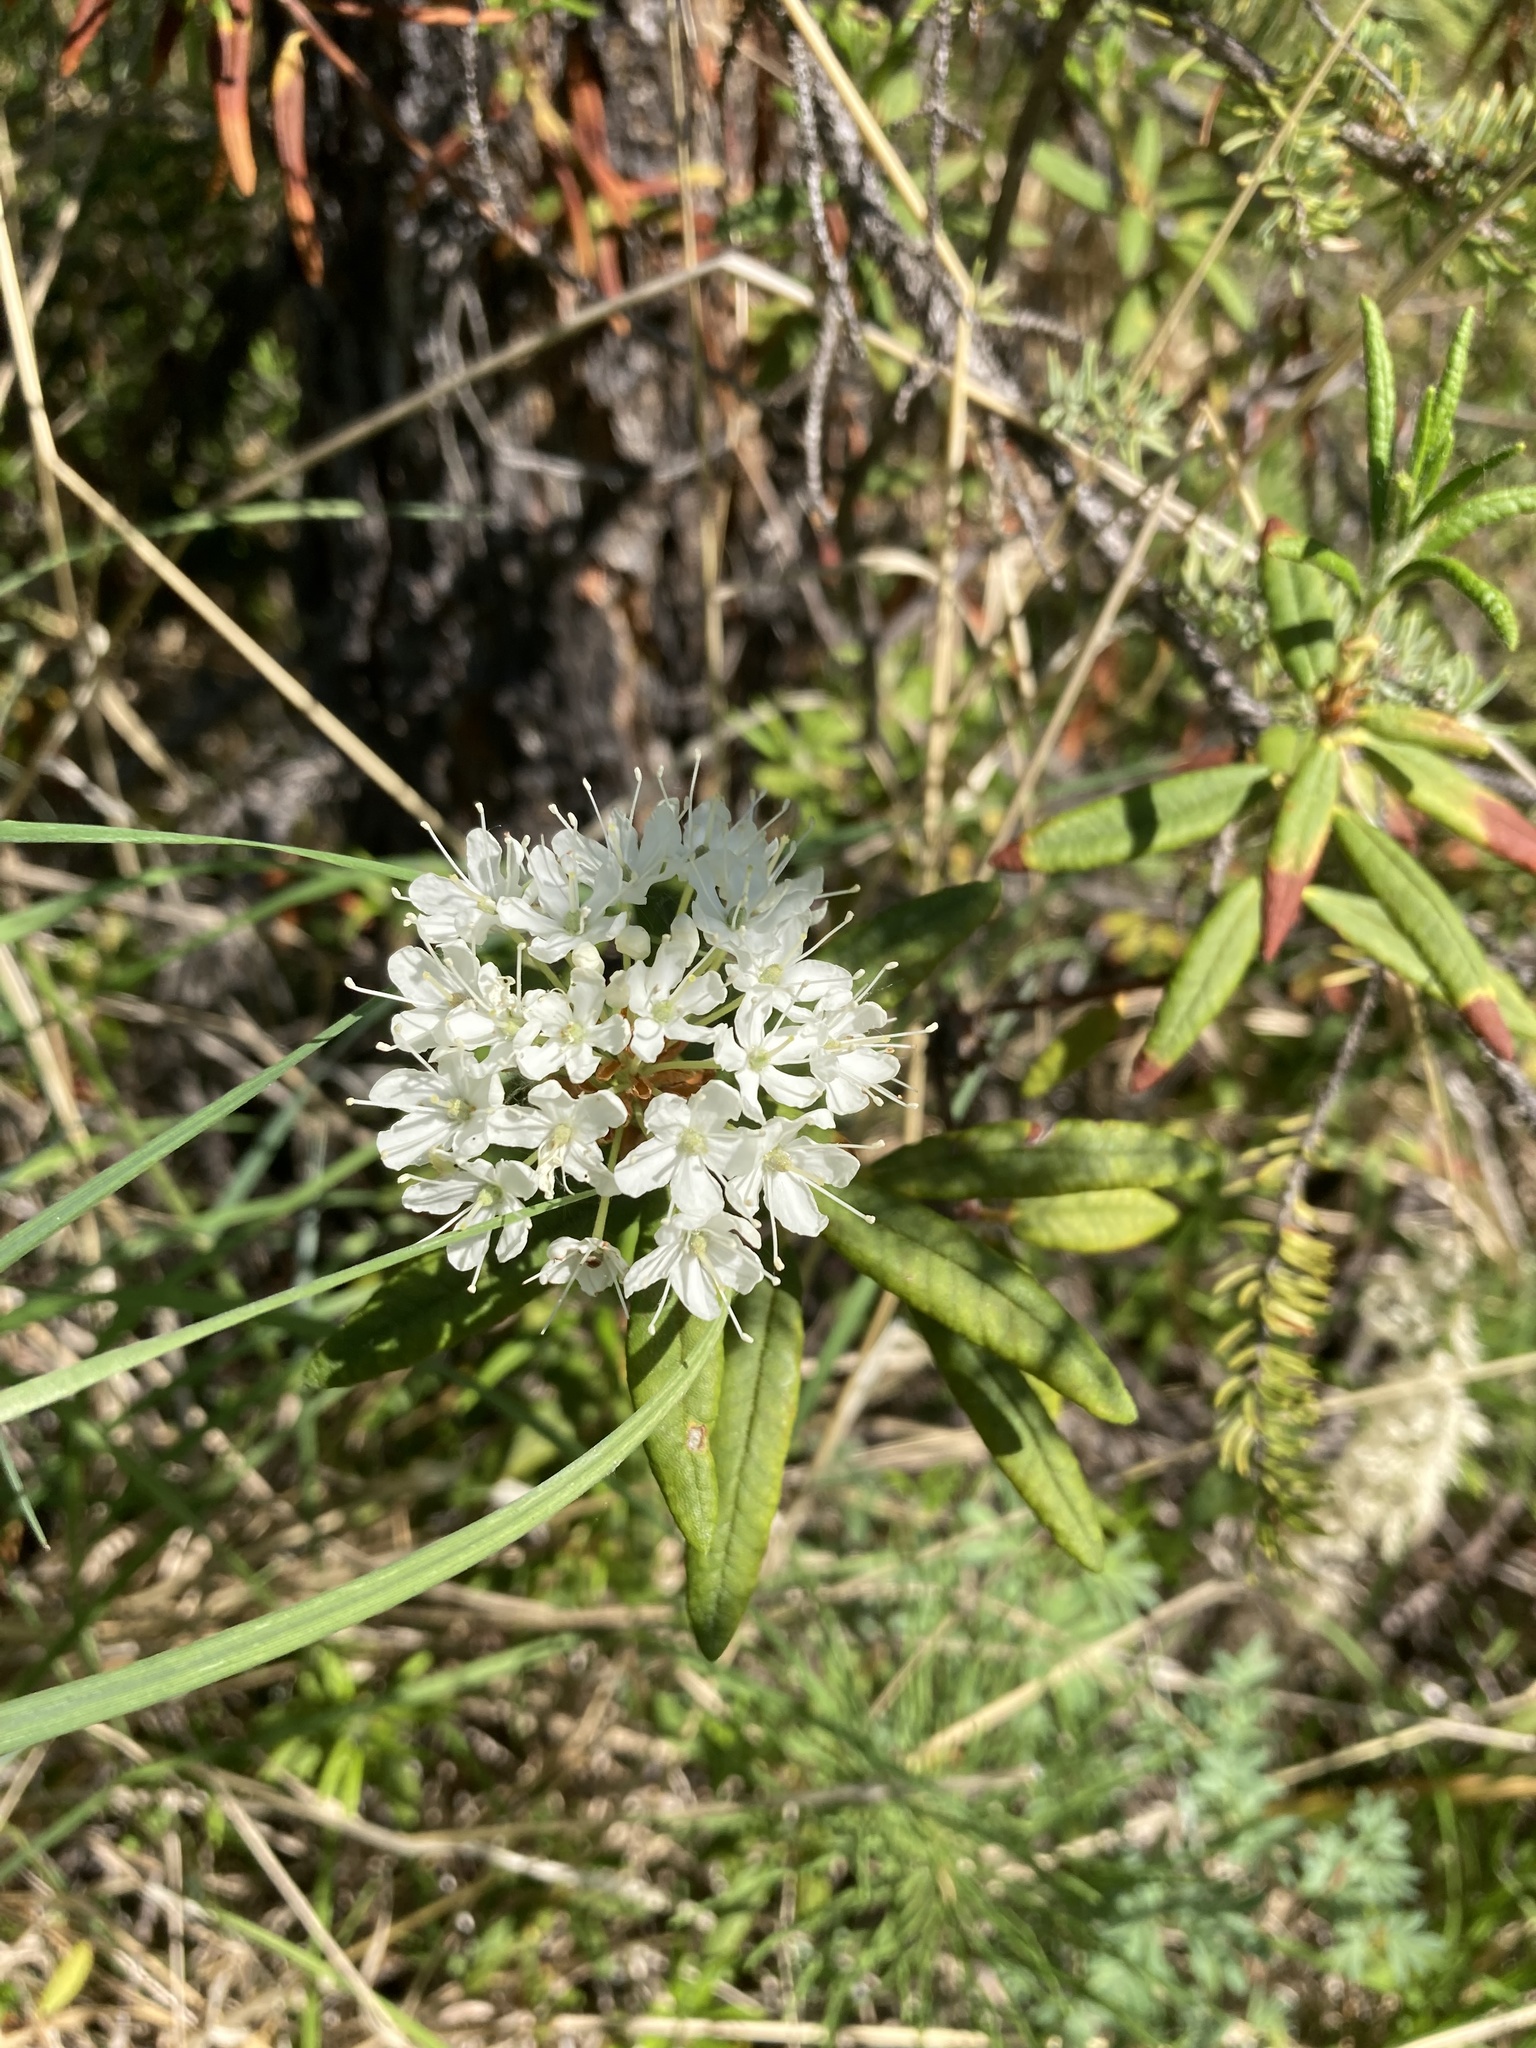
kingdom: Plantae
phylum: Tracheophyta
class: Magnoliopsida
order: Ericales
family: Ericaceae
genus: Rhododendron
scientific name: Rhododendron groenlandicum
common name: Bog labrador tea
